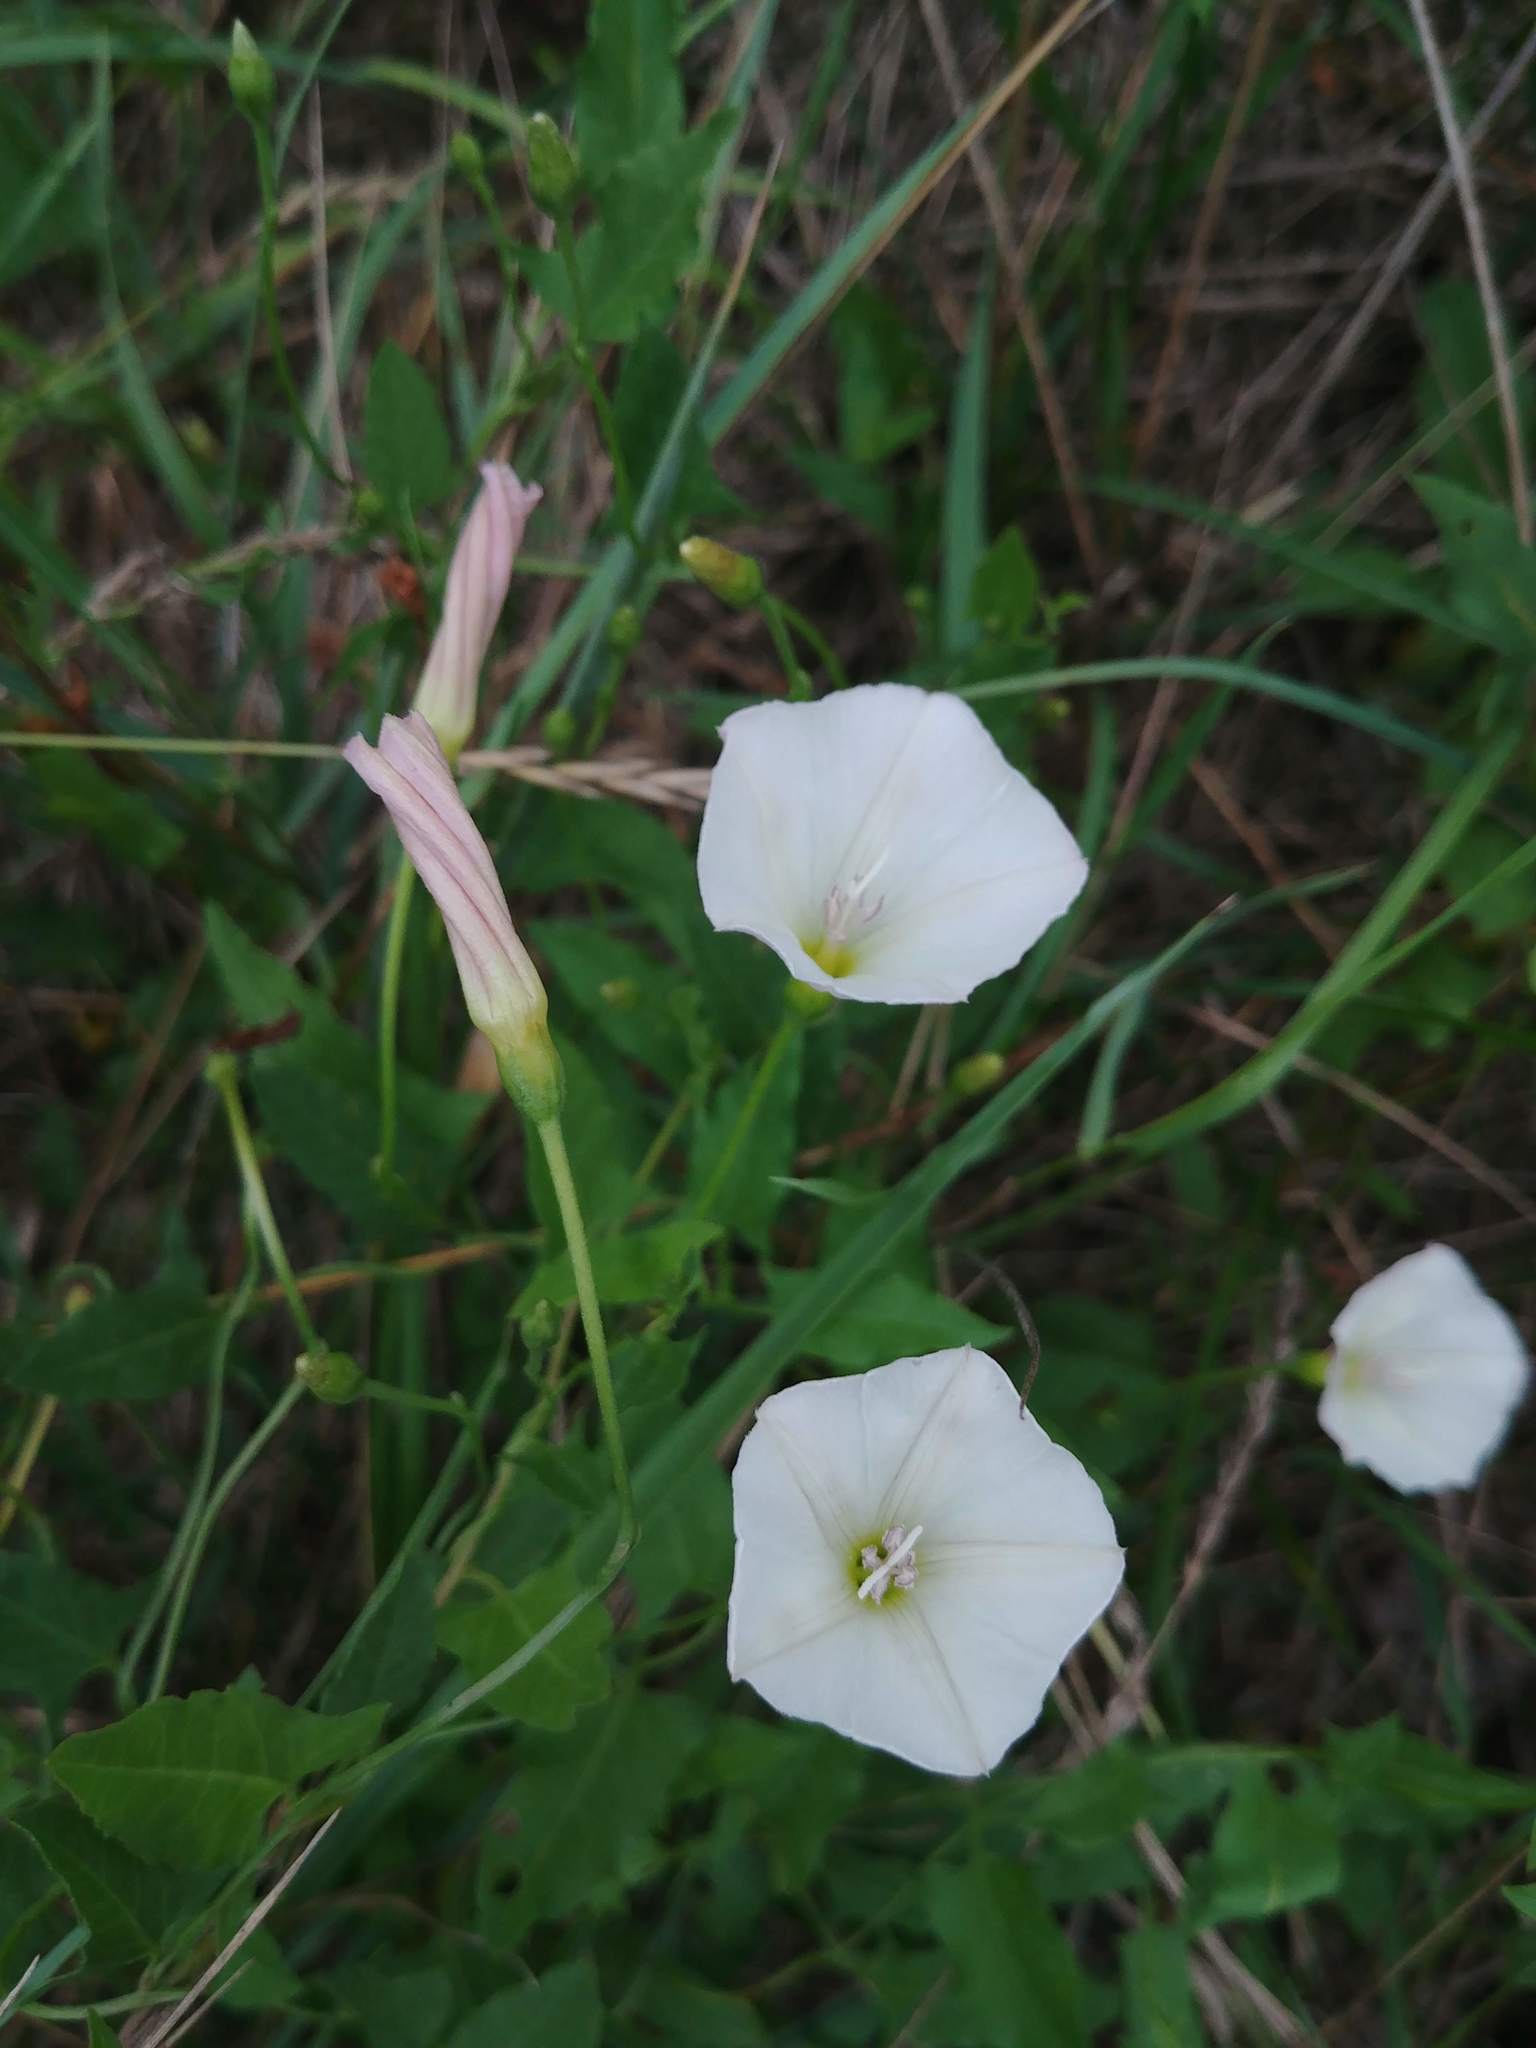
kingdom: Plantae
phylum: Tracheophyta
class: Magnoliopsida
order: Solanales
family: Convolvulaceae
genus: Convolvulus
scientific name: Convolvulus arvensis
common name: Field bindweed
